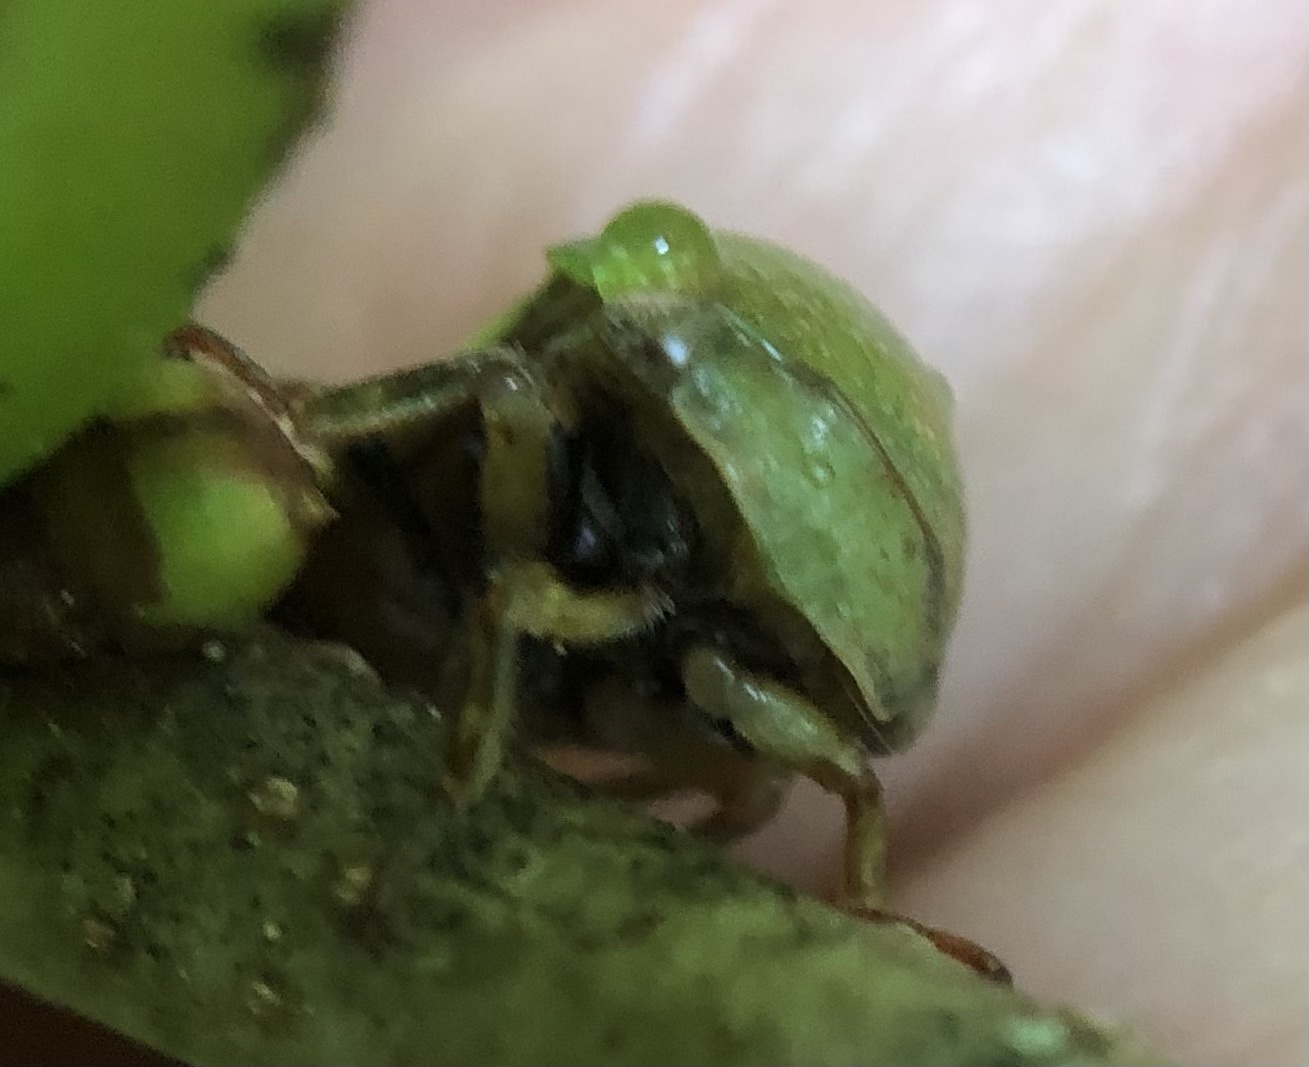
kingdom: Animalia
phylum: Arthropoda
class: Insecta
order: Hemiptera
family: Membracidae
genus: Hebetica
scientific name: Hebetica
